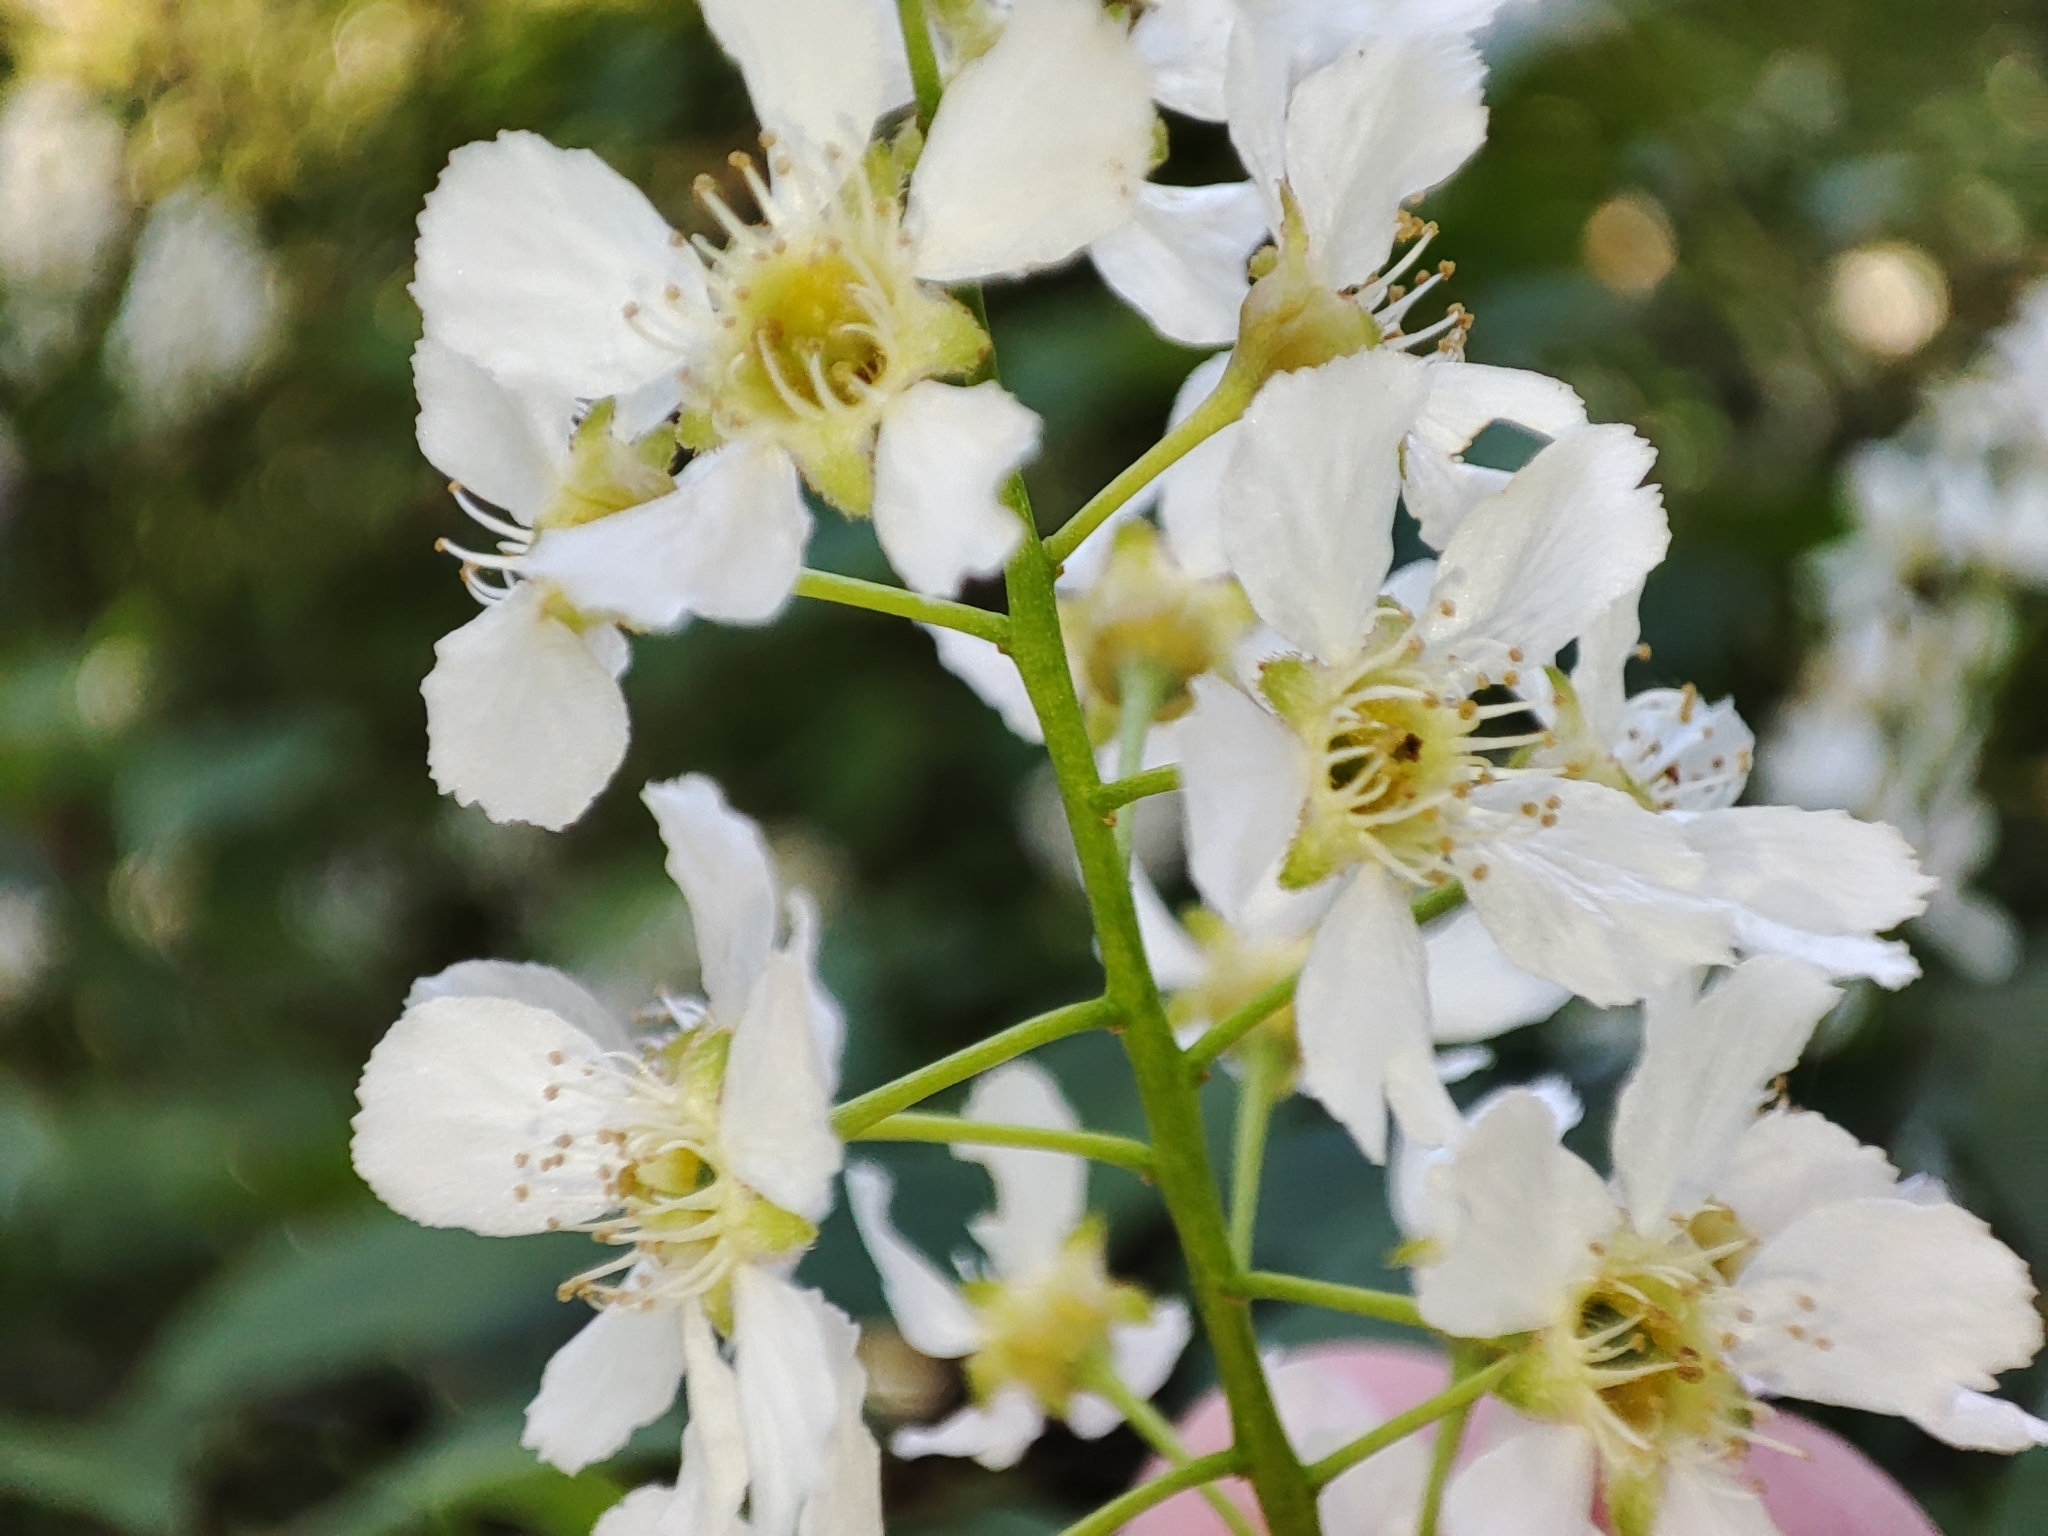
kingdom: Plantae
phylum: Tracheophyta
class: Magnoliopsida
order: Rosales
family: Rosaceae
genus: Prunus
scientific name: Prunus padus
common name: Bird cherry
